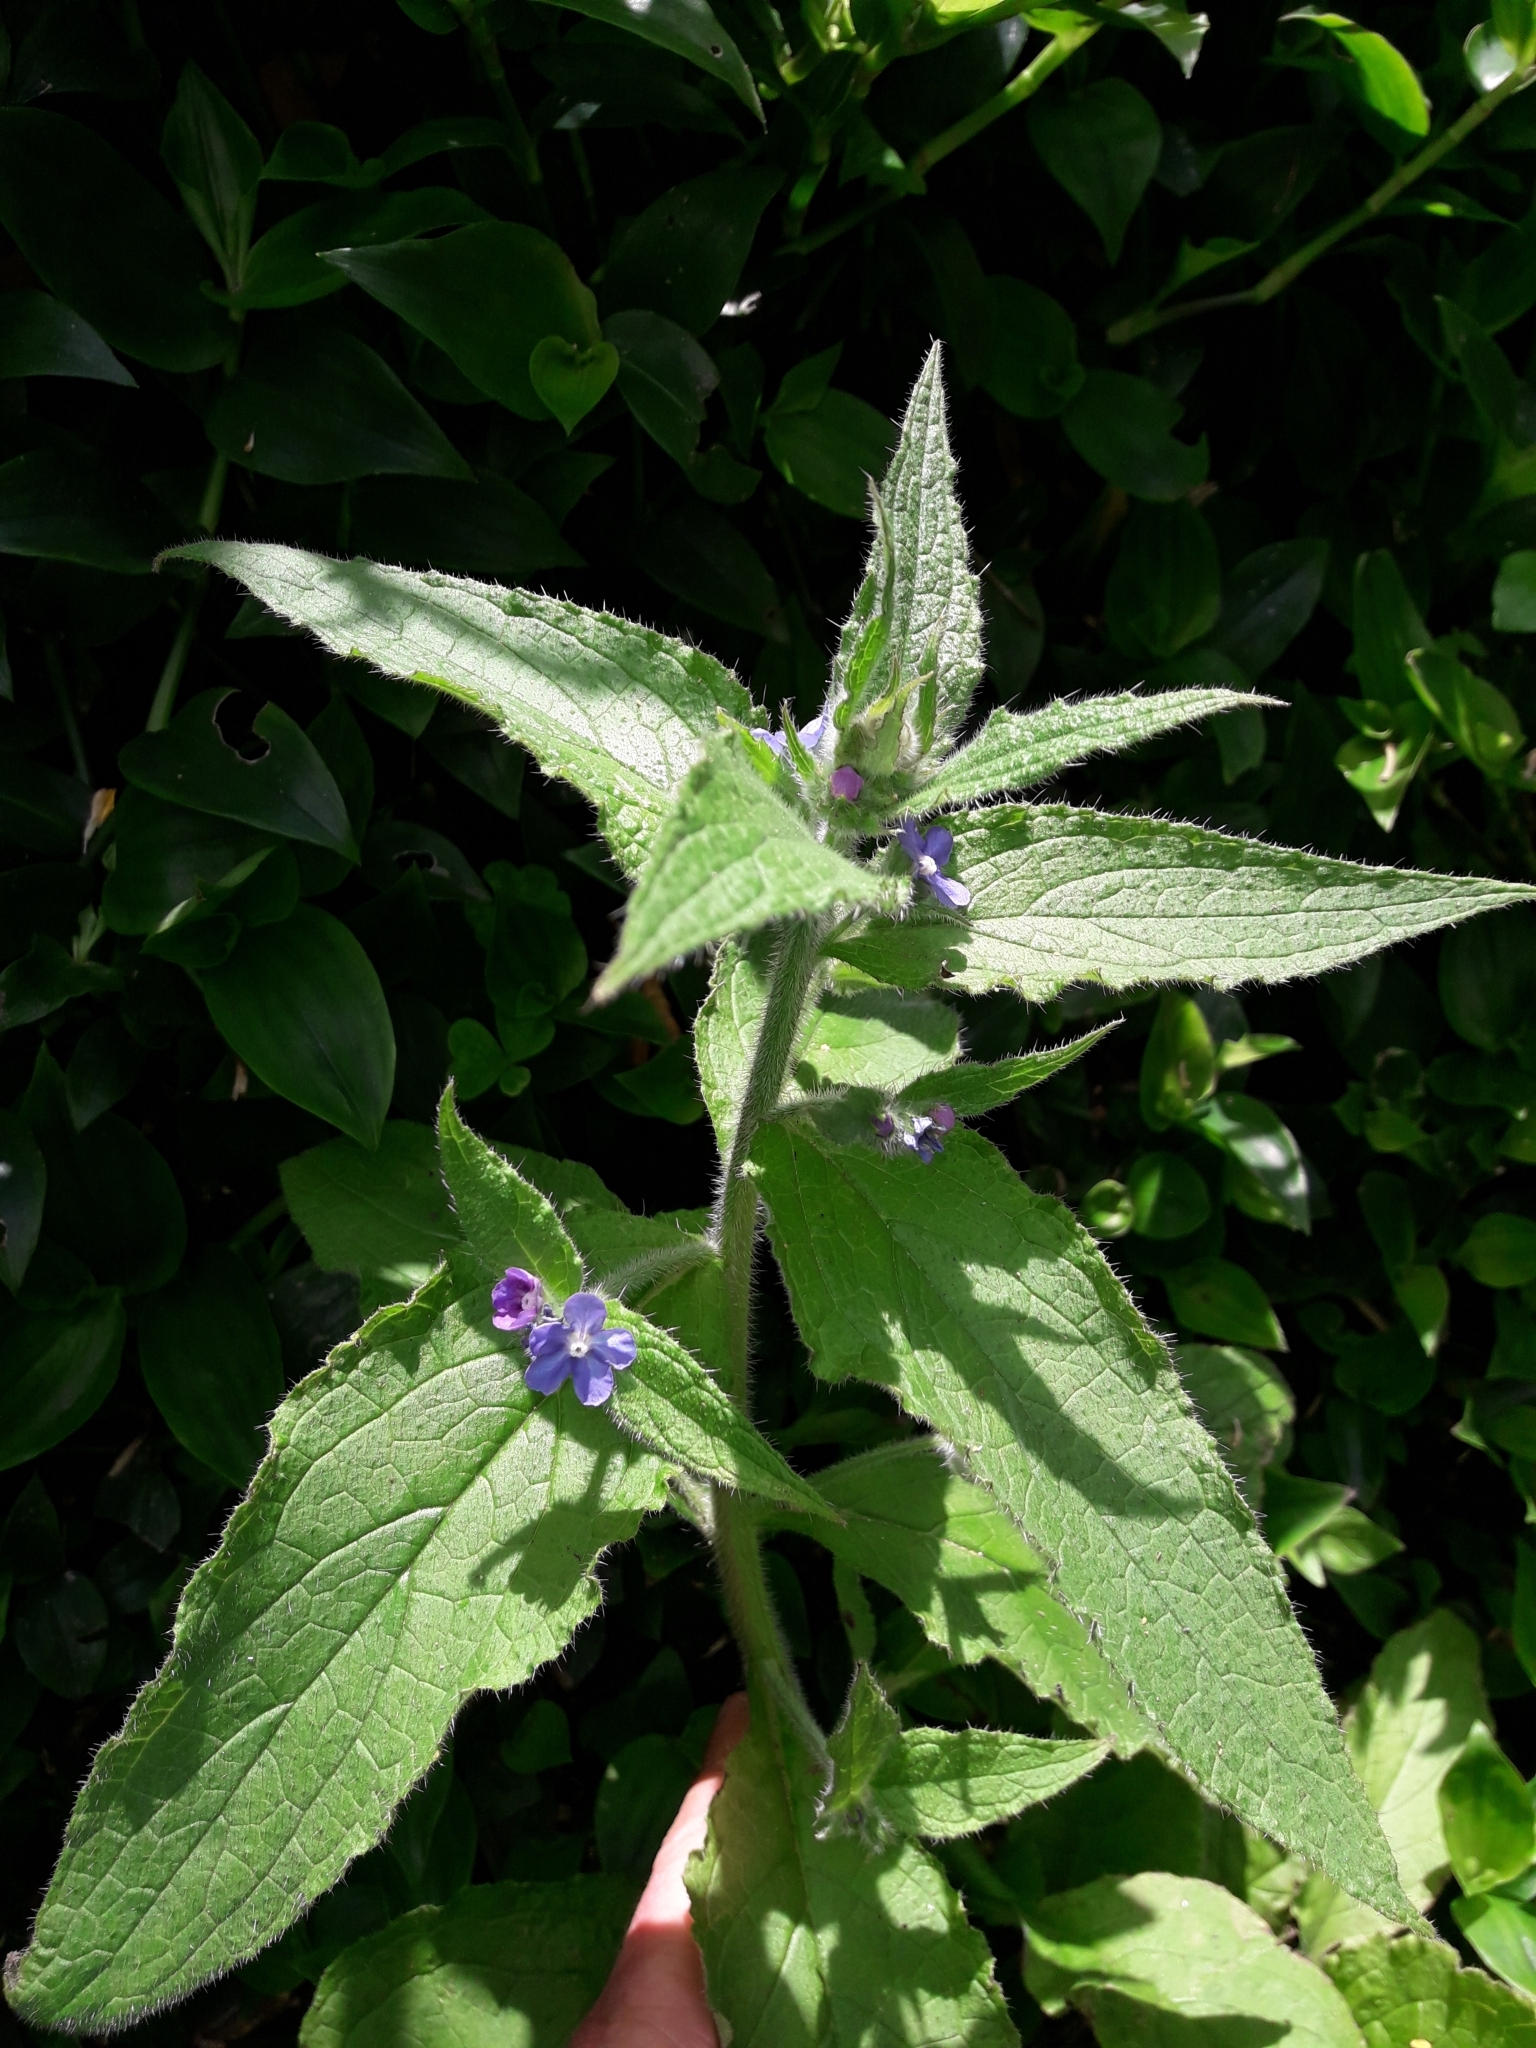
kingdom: Plantae
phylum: Tracheophyta
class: Magnoliopsida
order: Boraginales
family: Boraginaceae
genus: Pentaglottis
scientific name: Pentaglottis sempervirens
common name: Green alkanet
